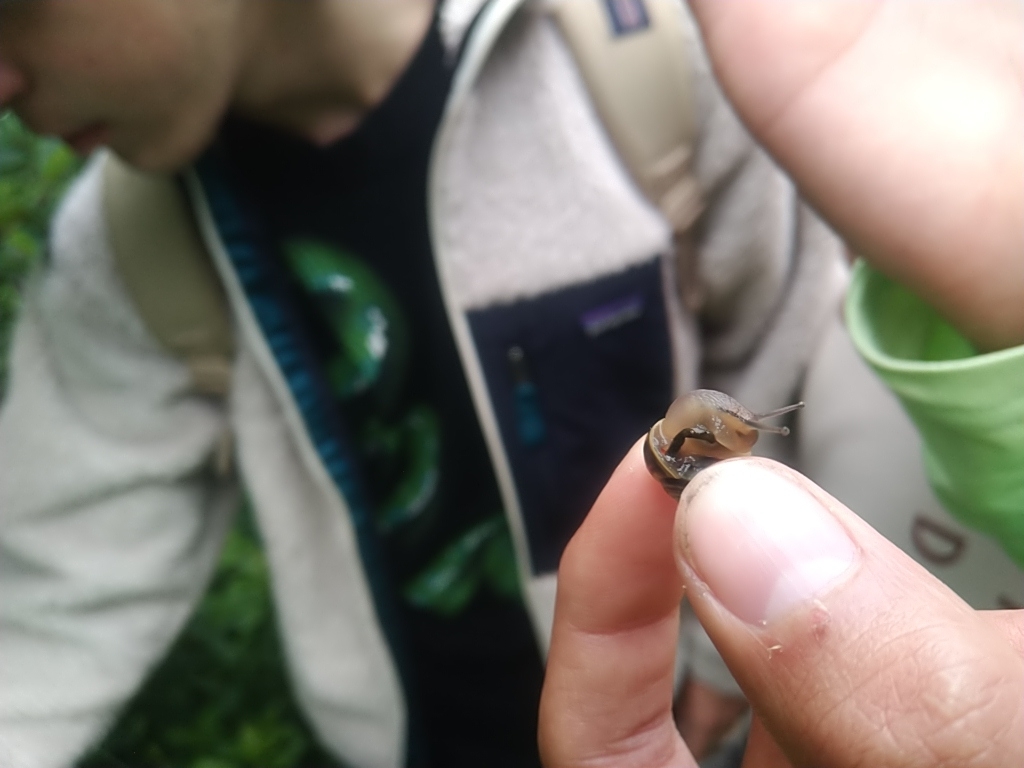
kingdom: Animalia
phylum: Mollusca
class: Gastropoda
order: Stylommatophora
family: Helicidae
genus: Cepaea
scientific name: Cepaea
